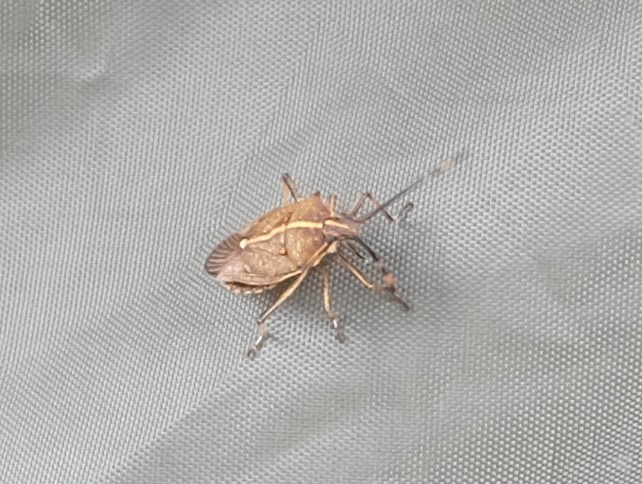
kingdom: Animalia
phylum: Arthropoda
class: Insecta
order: Hemiptera
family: Pentatomidae
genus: Omyta
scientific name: Omyta centrolineata
